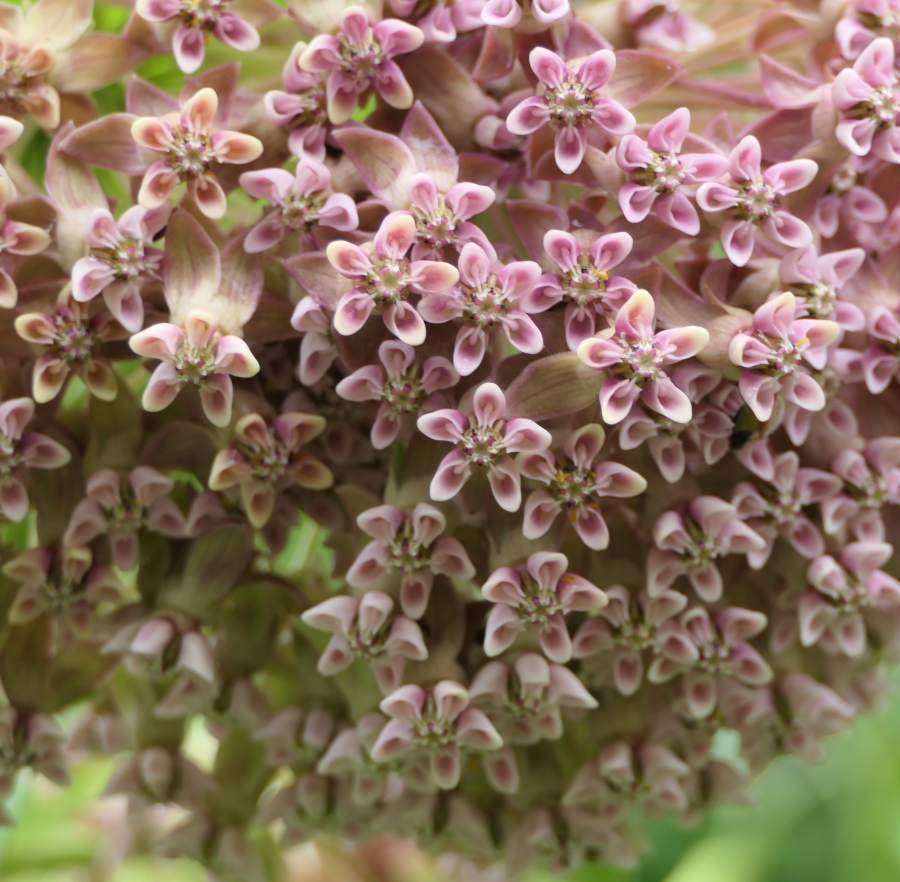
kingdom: Plantae
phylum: Tracheophyta
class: Magnoliopsida
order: Gentianales
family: Apocynaceae
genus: Asclepias
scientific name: Asclepias syriaca
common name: Common milkweed
